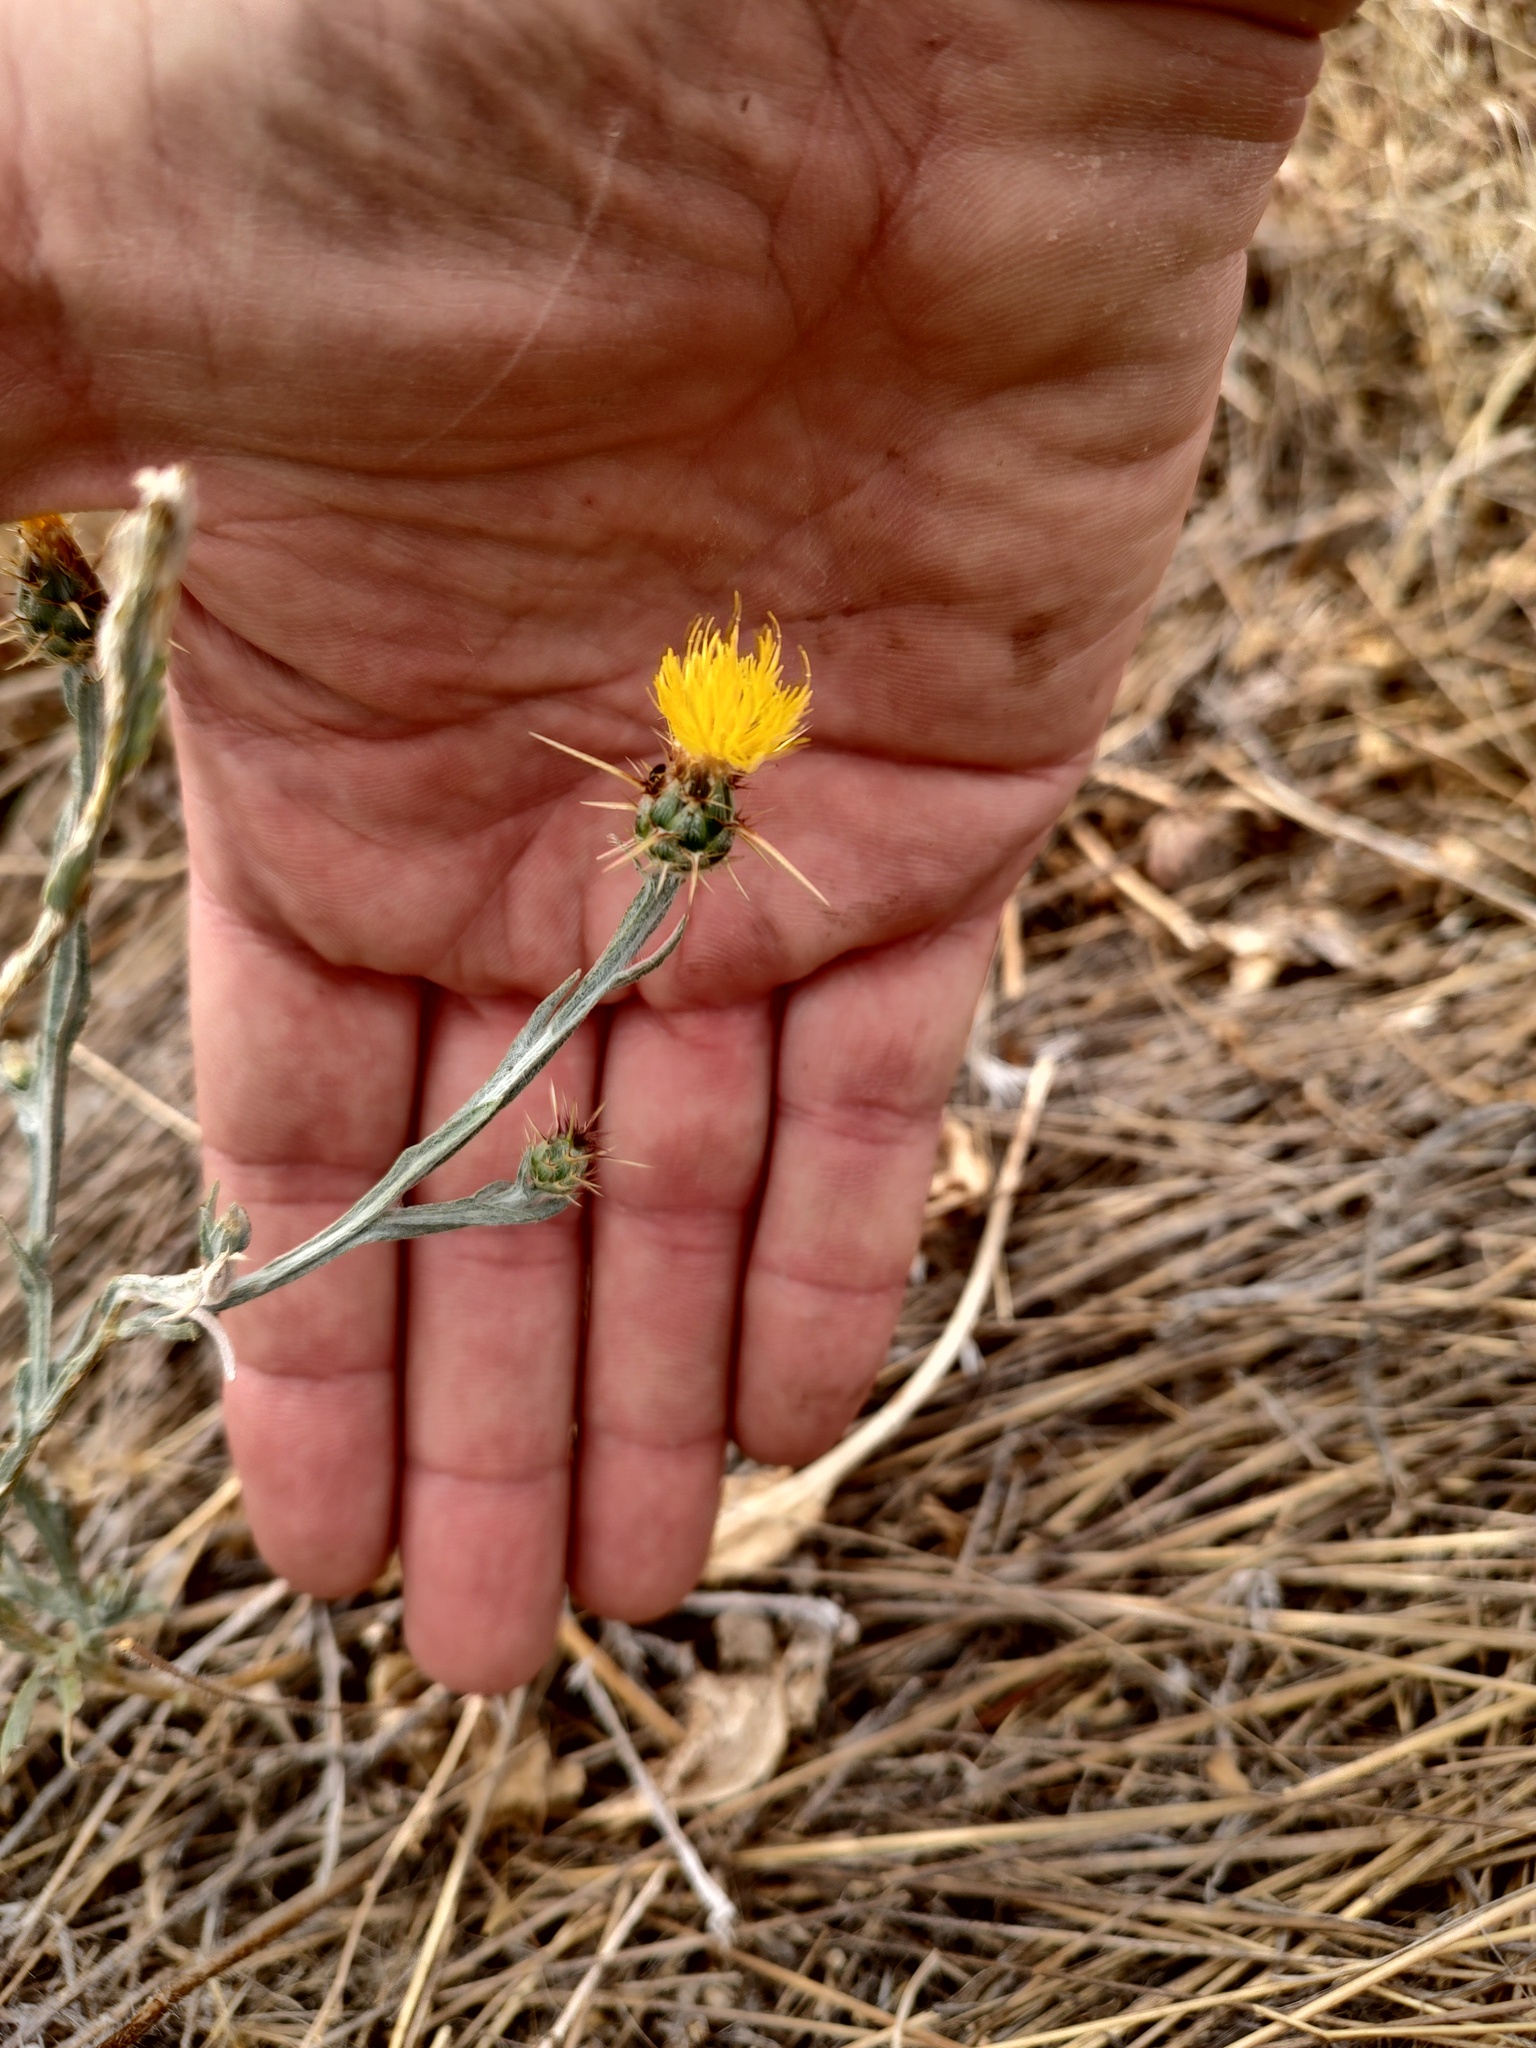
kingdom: Plantae
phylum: Tracheophyta
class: Magnoliopsida
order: Asterales
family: Asteraceae
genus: Centaurea
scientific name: Centaurea solstitialis
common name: Yellow star-thistle
